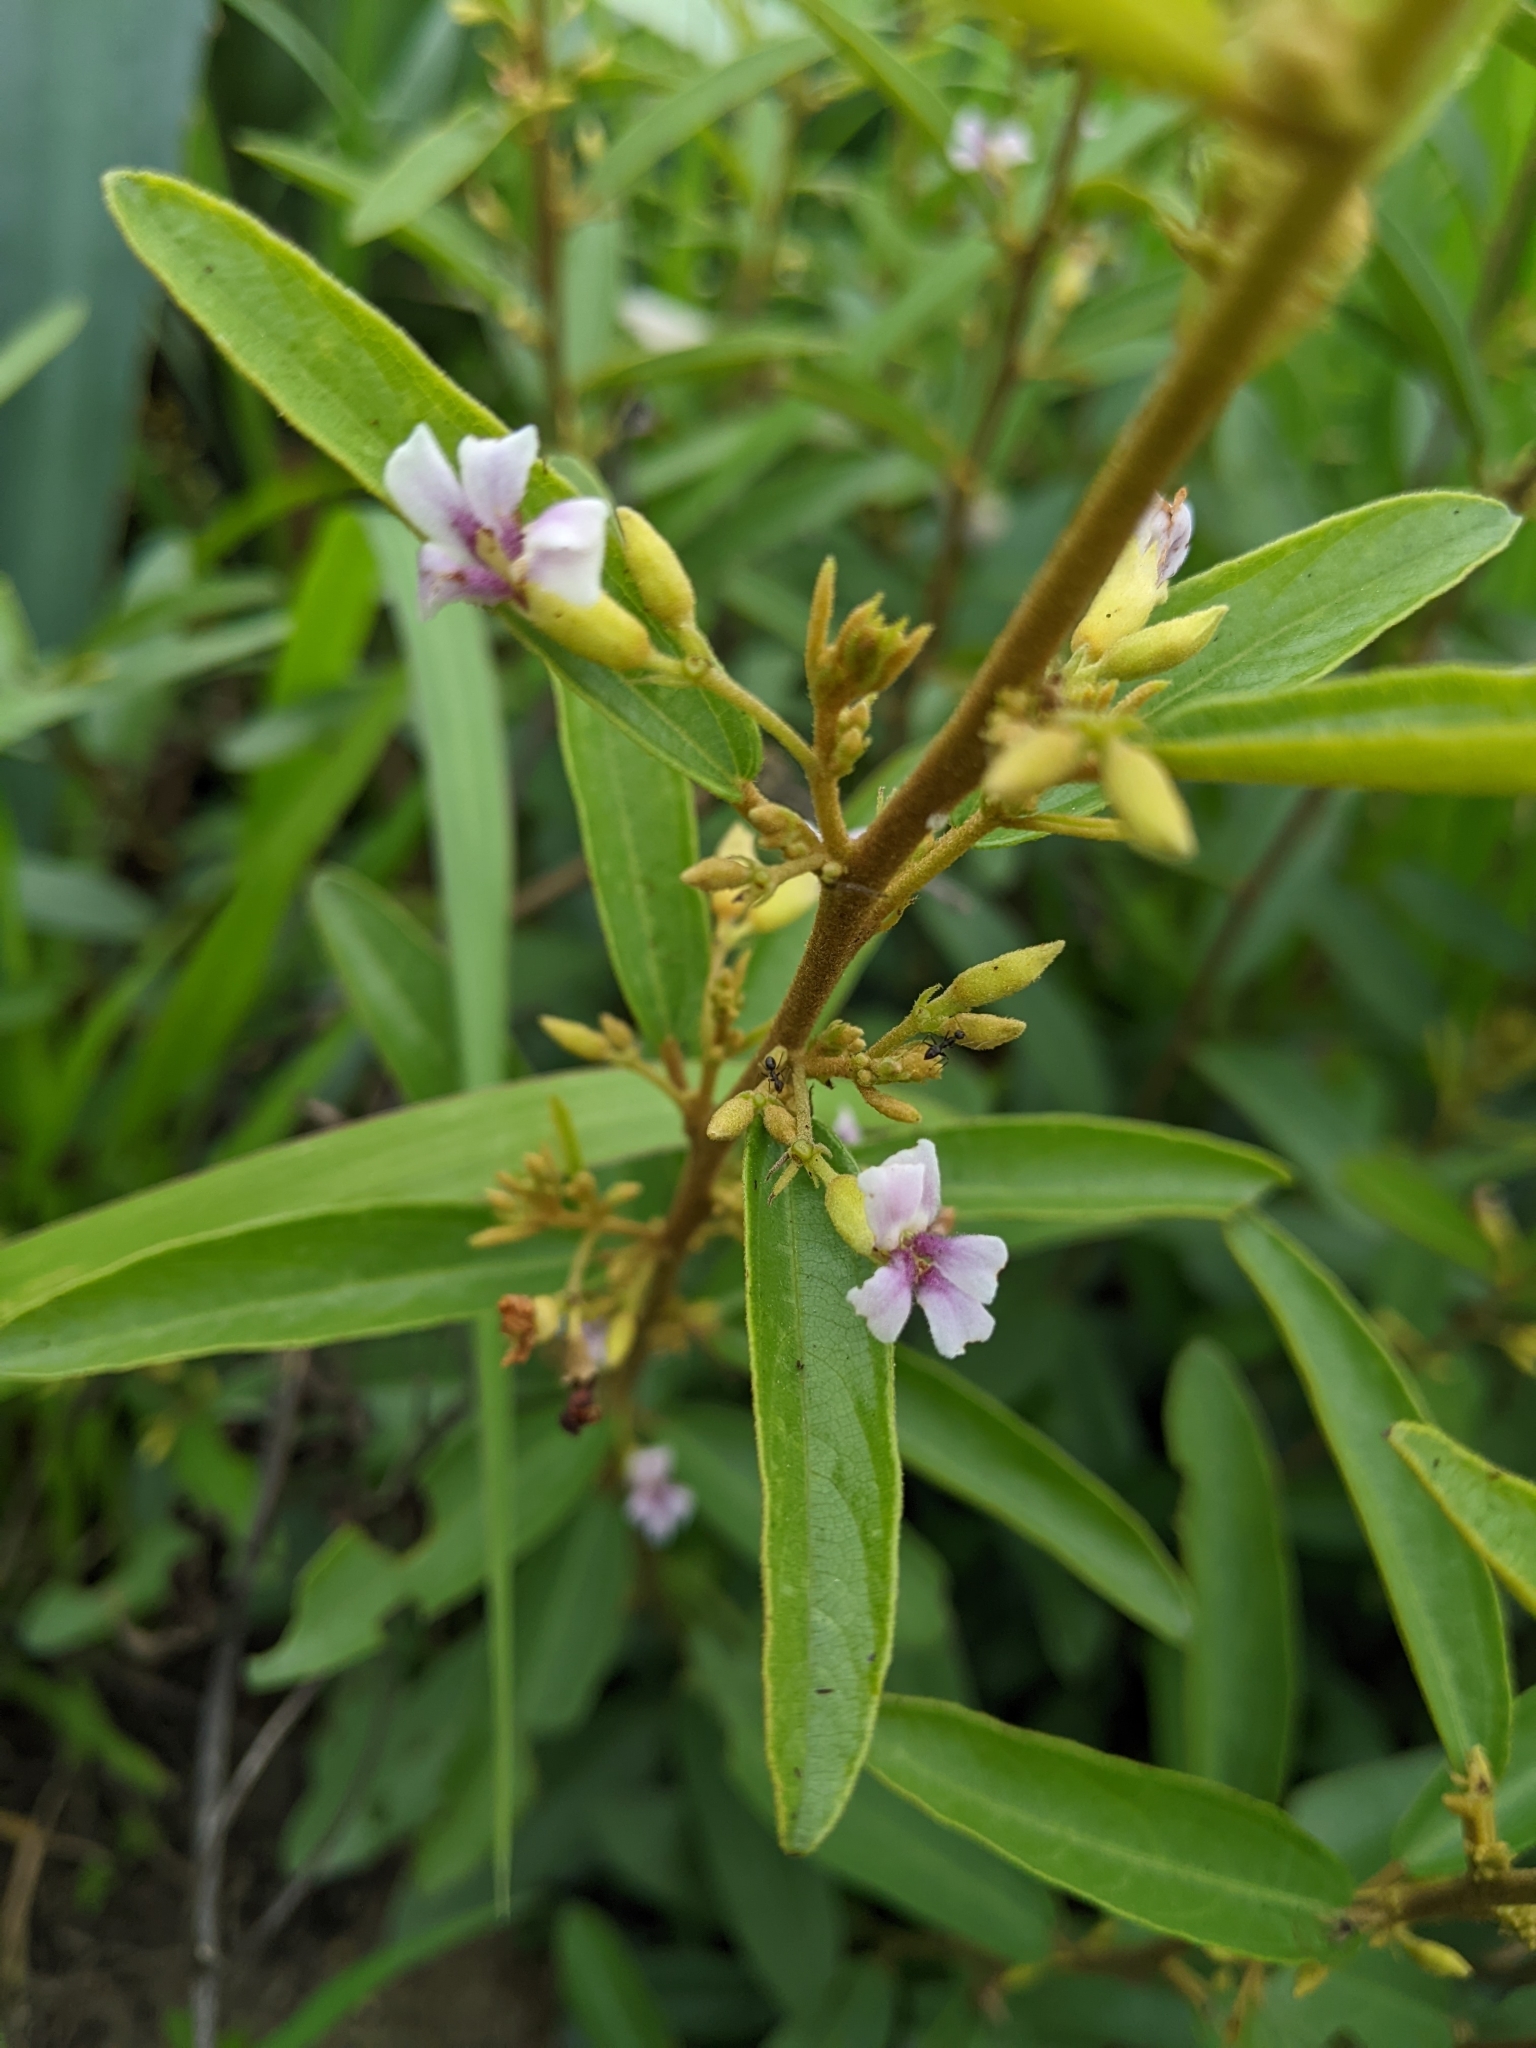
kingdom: Plantae
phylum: Tracheophyta
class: Magnoliopsida
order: Malvales
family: Malvaceae
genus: Helicteres
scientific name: Helicteres angustifolia
